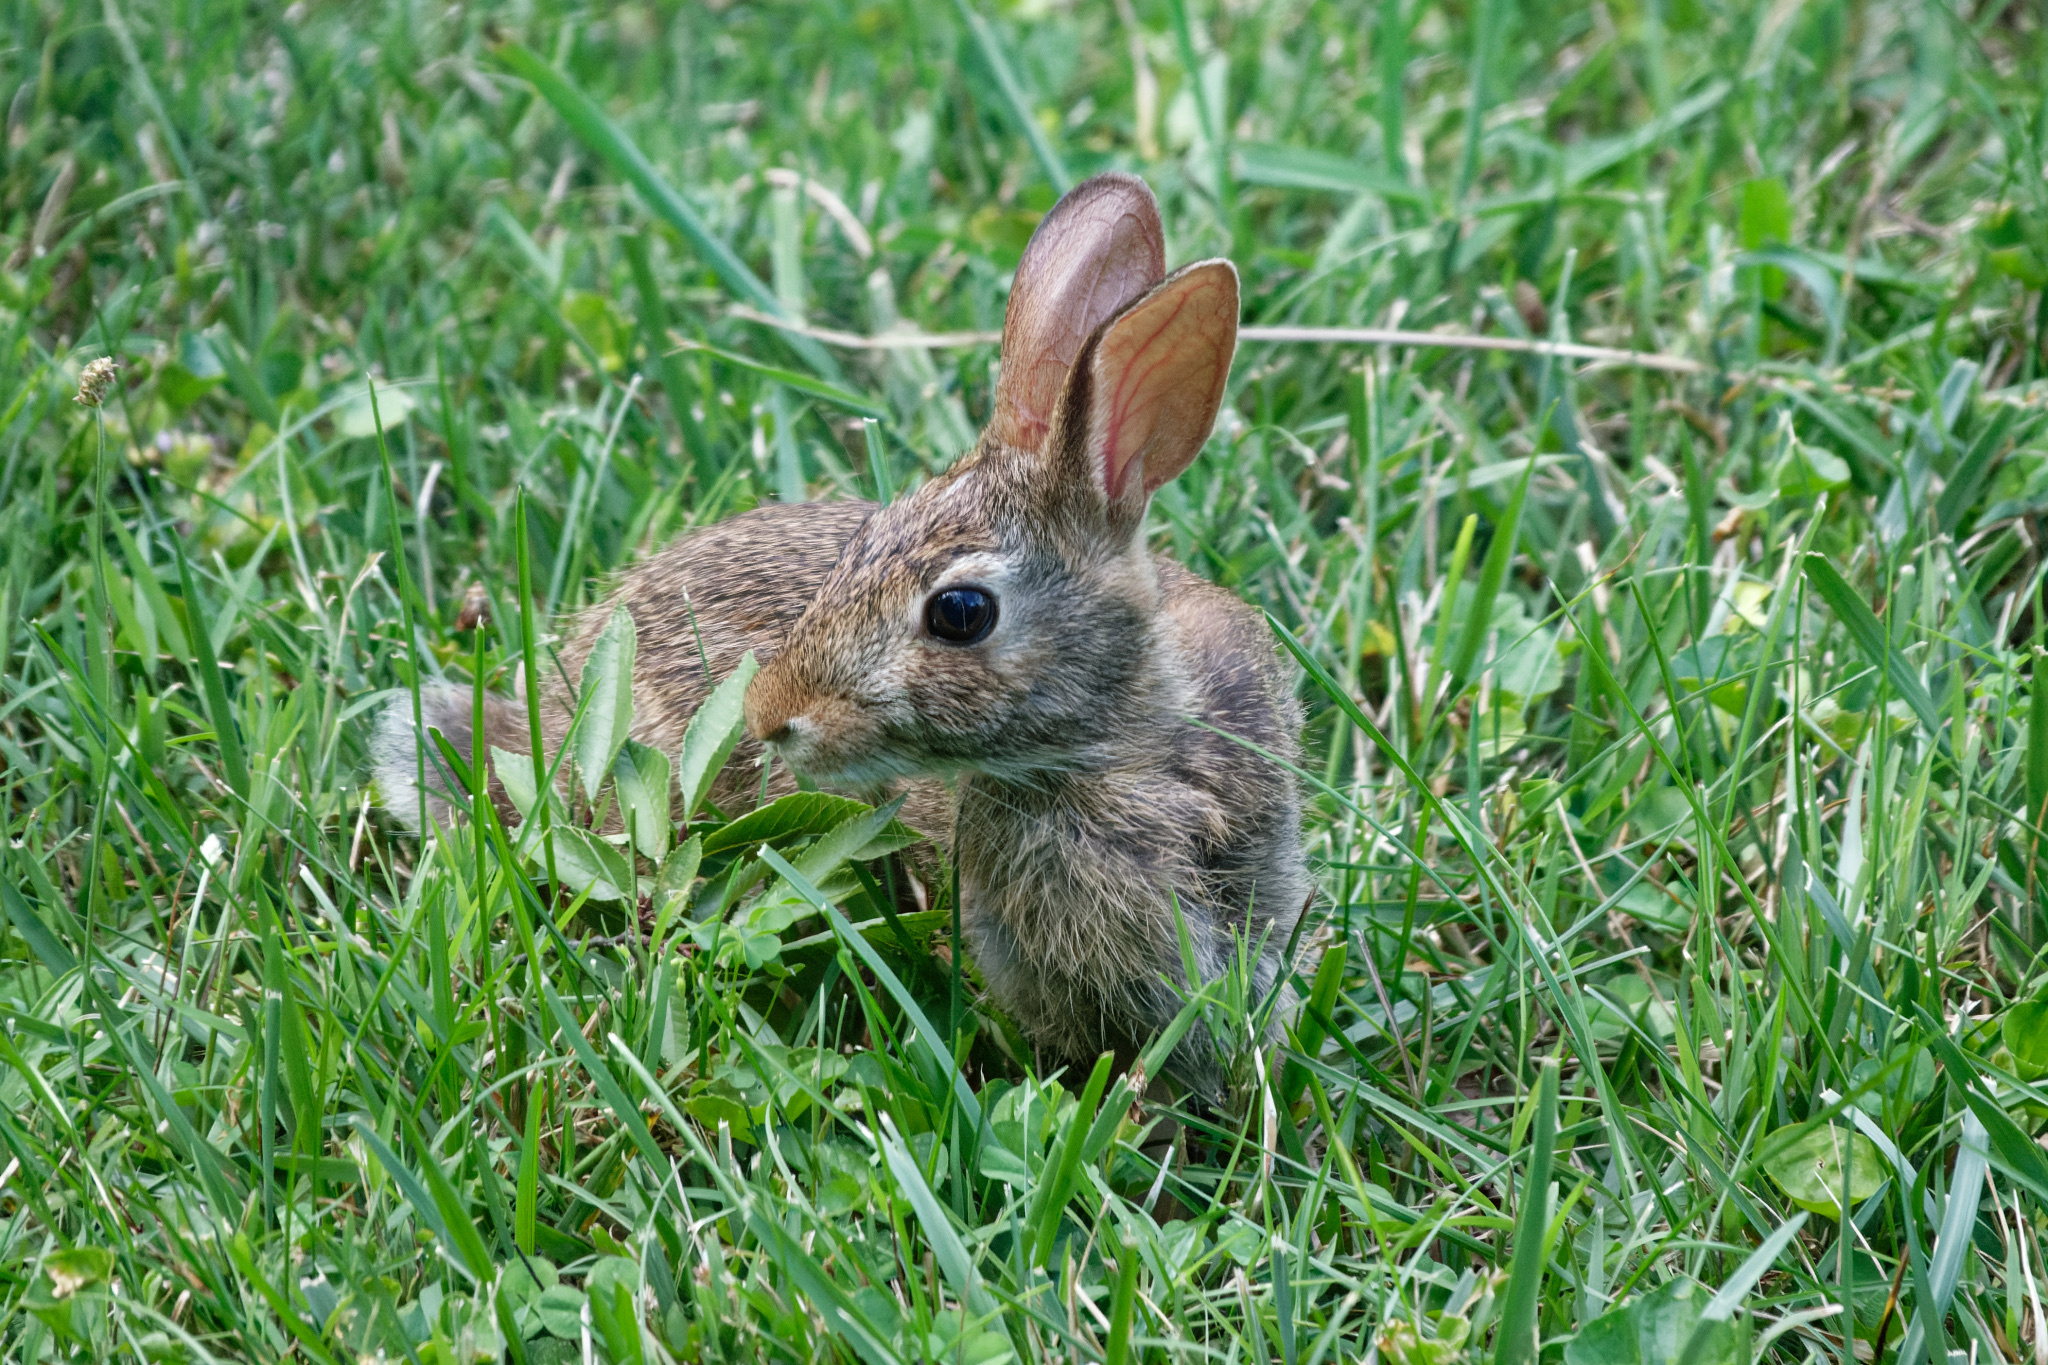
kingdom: Animalia
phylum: Chordata
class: Mammalia
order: Lagomorpha
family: Leporidae
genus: Sylvilagus
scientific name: Sylvilagus floridanus
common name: Eastern cottontail
